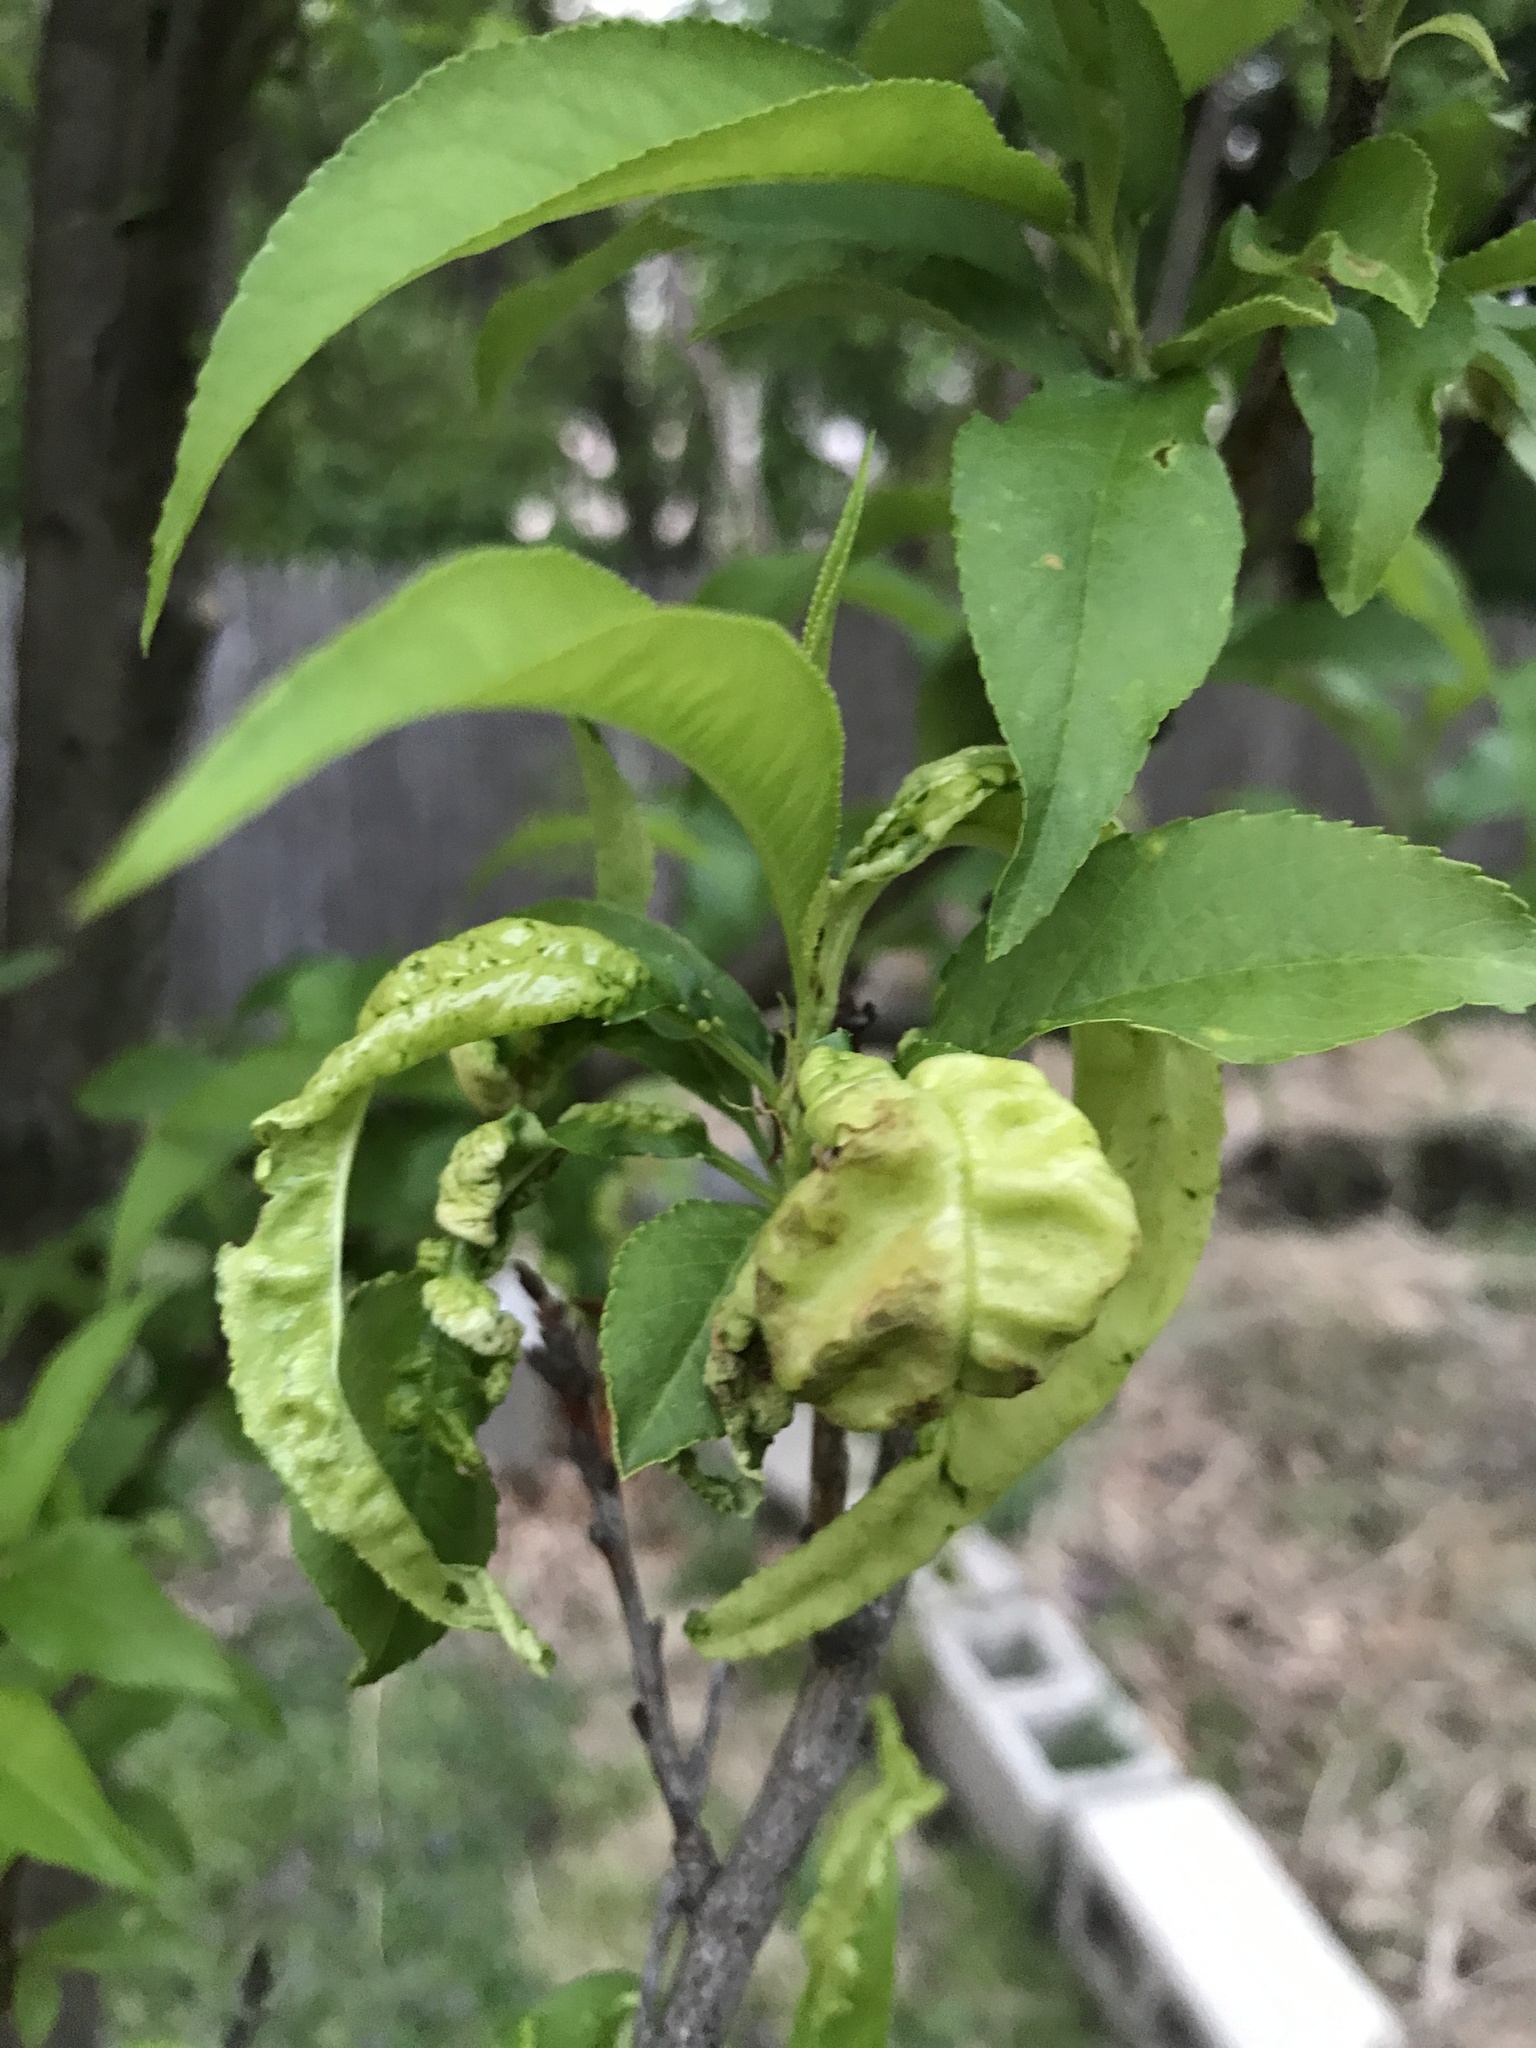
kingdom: Fungi
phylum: Ascomycota
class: Taphrinomycetes
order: Taphrinales
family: Taphrinaceae
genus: Taphrina
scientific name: Taphrina deformans
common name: Peach leaf curl
